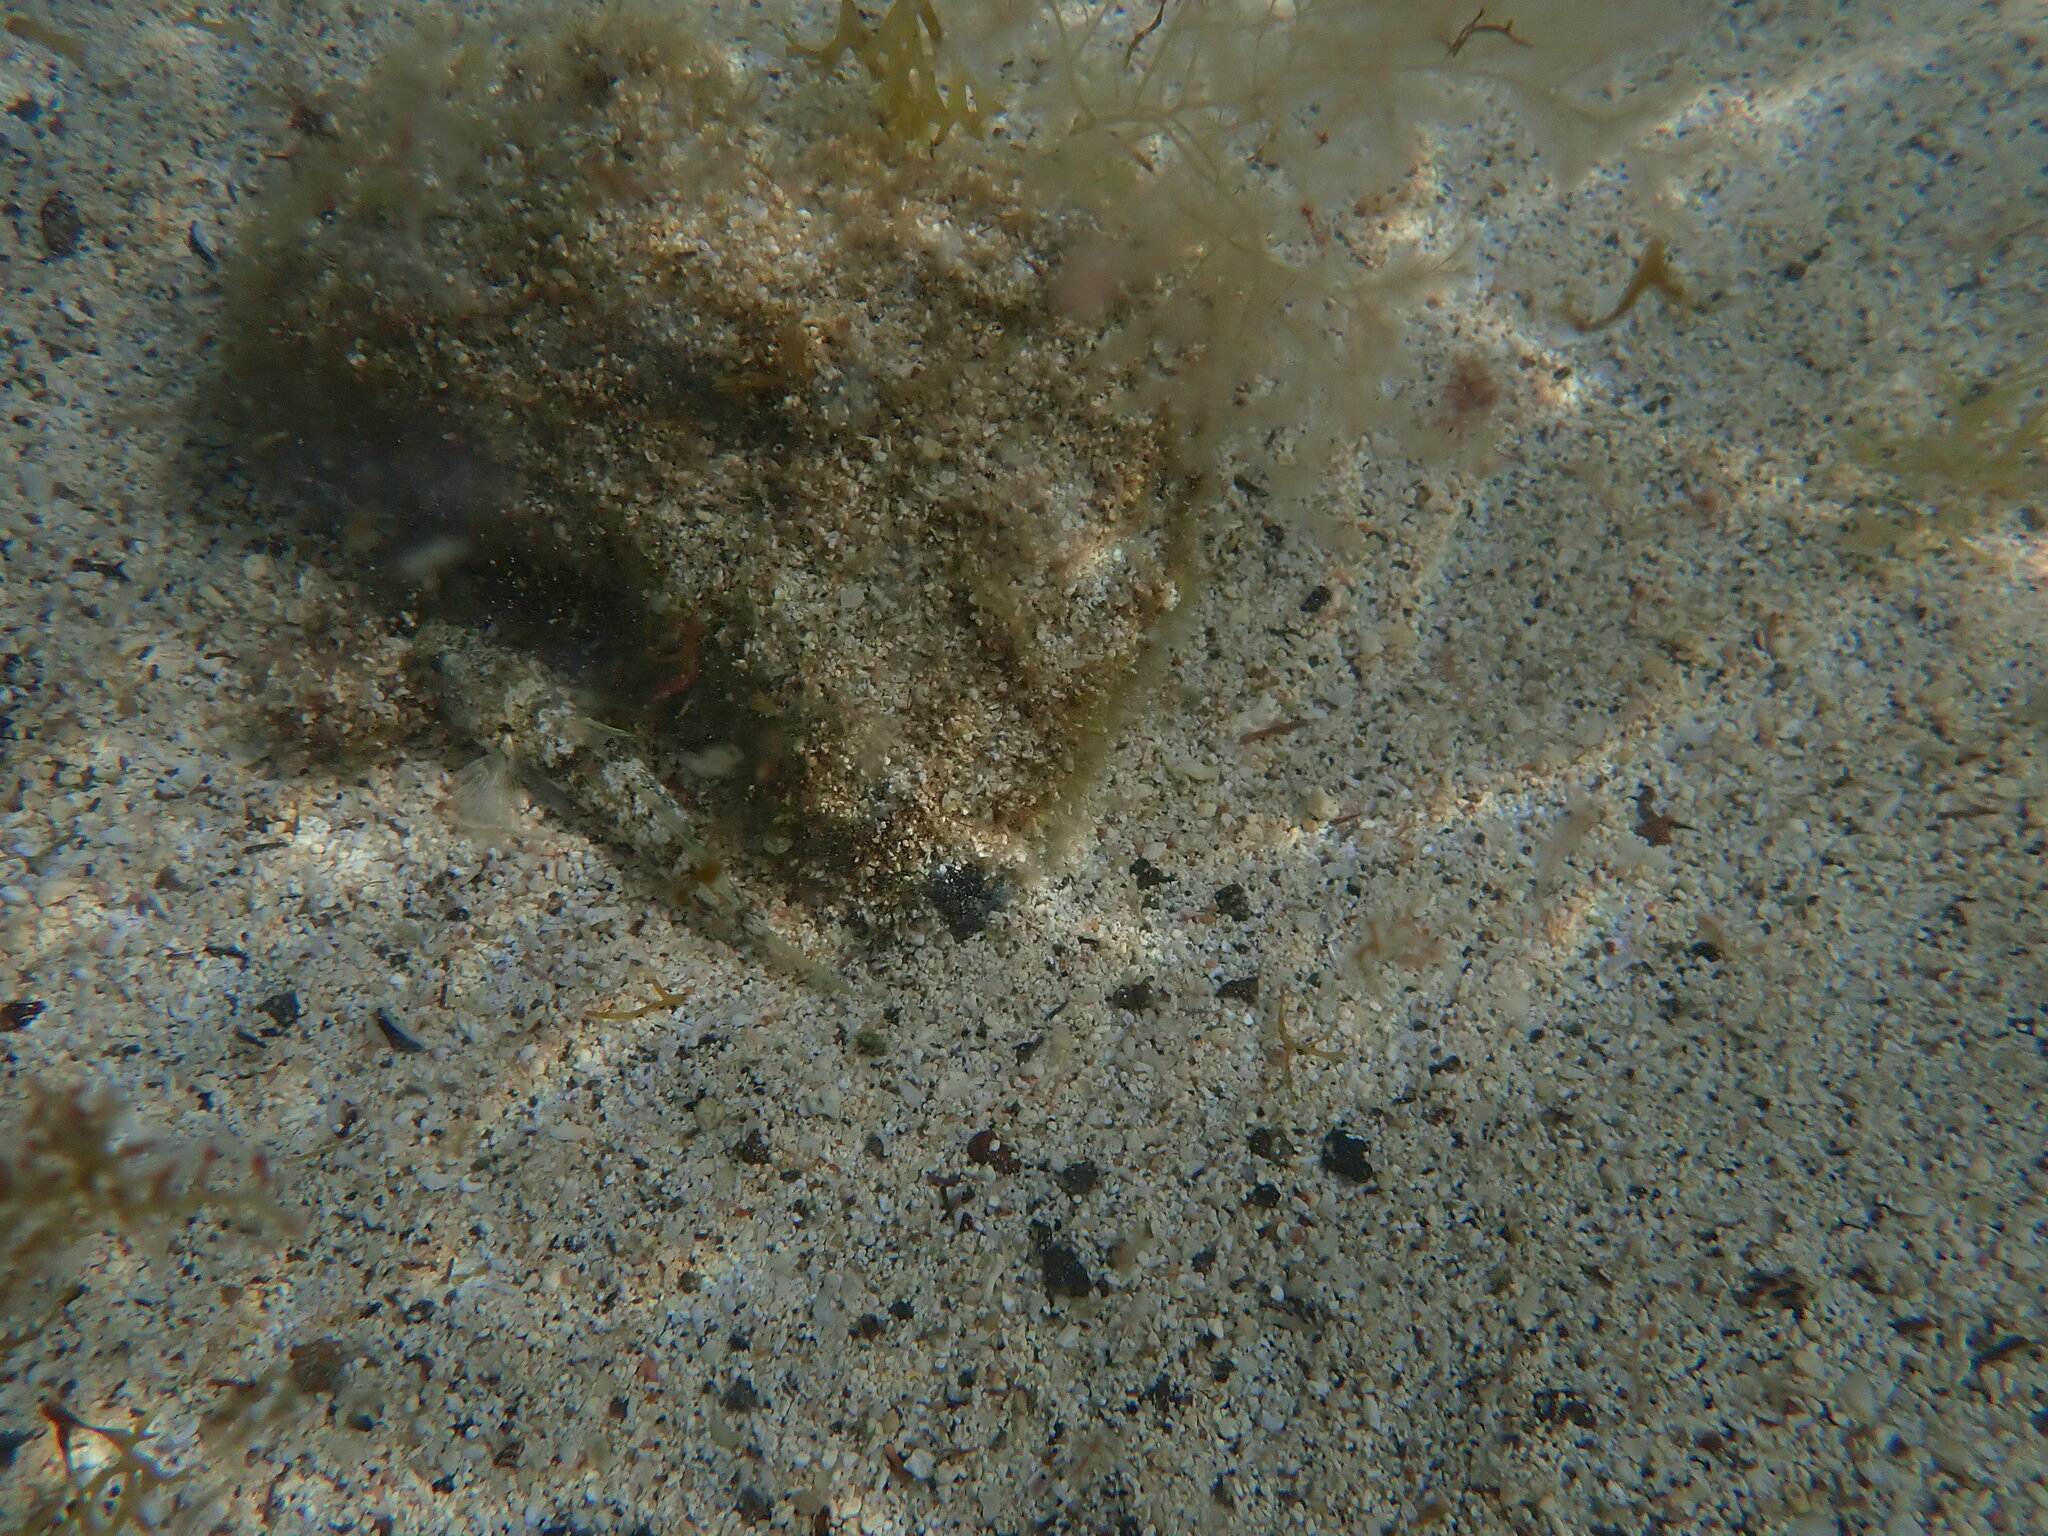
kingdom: Animalia
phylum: Chordata
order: Perciformes
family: Gobiidae
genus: Gobius
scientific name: Gobius niger
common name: Black goby
